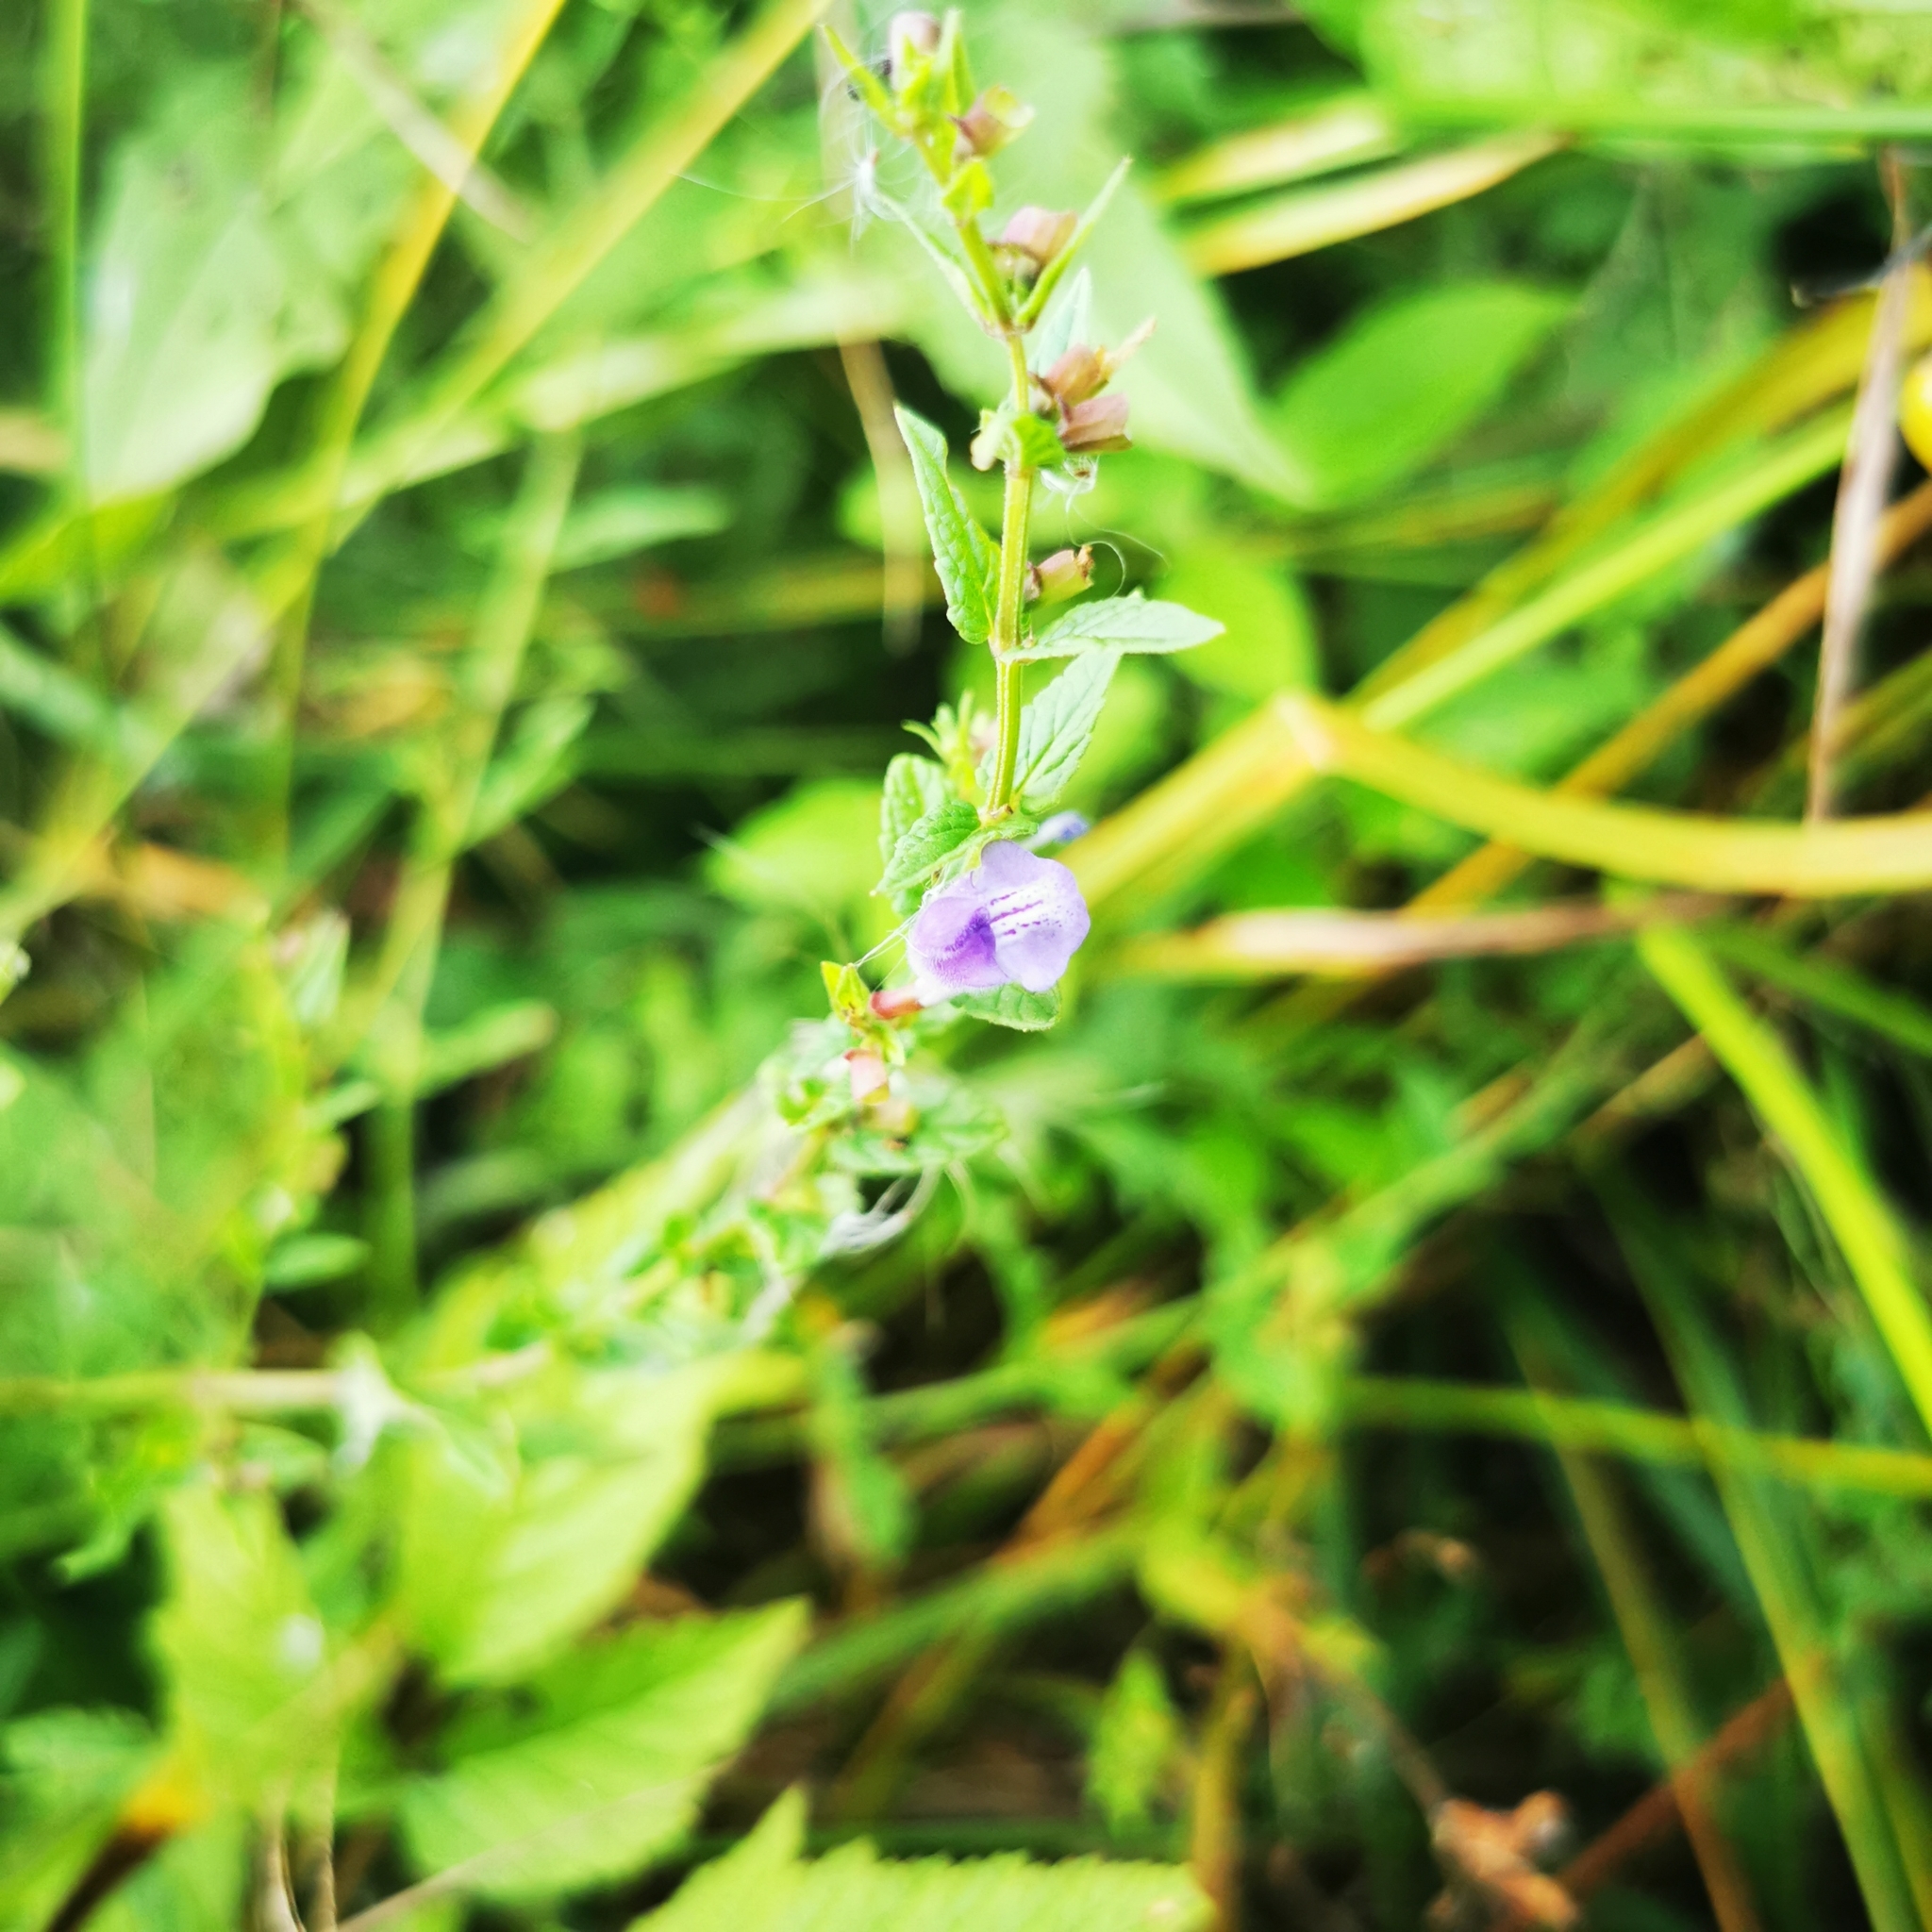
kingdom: Plantae
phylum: Tracheophyta
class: Magnoliopsida
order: Lamiales
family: Lamiaceae
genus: Scutellaria
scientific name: Scutellaria galericulata
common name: Skullcap
